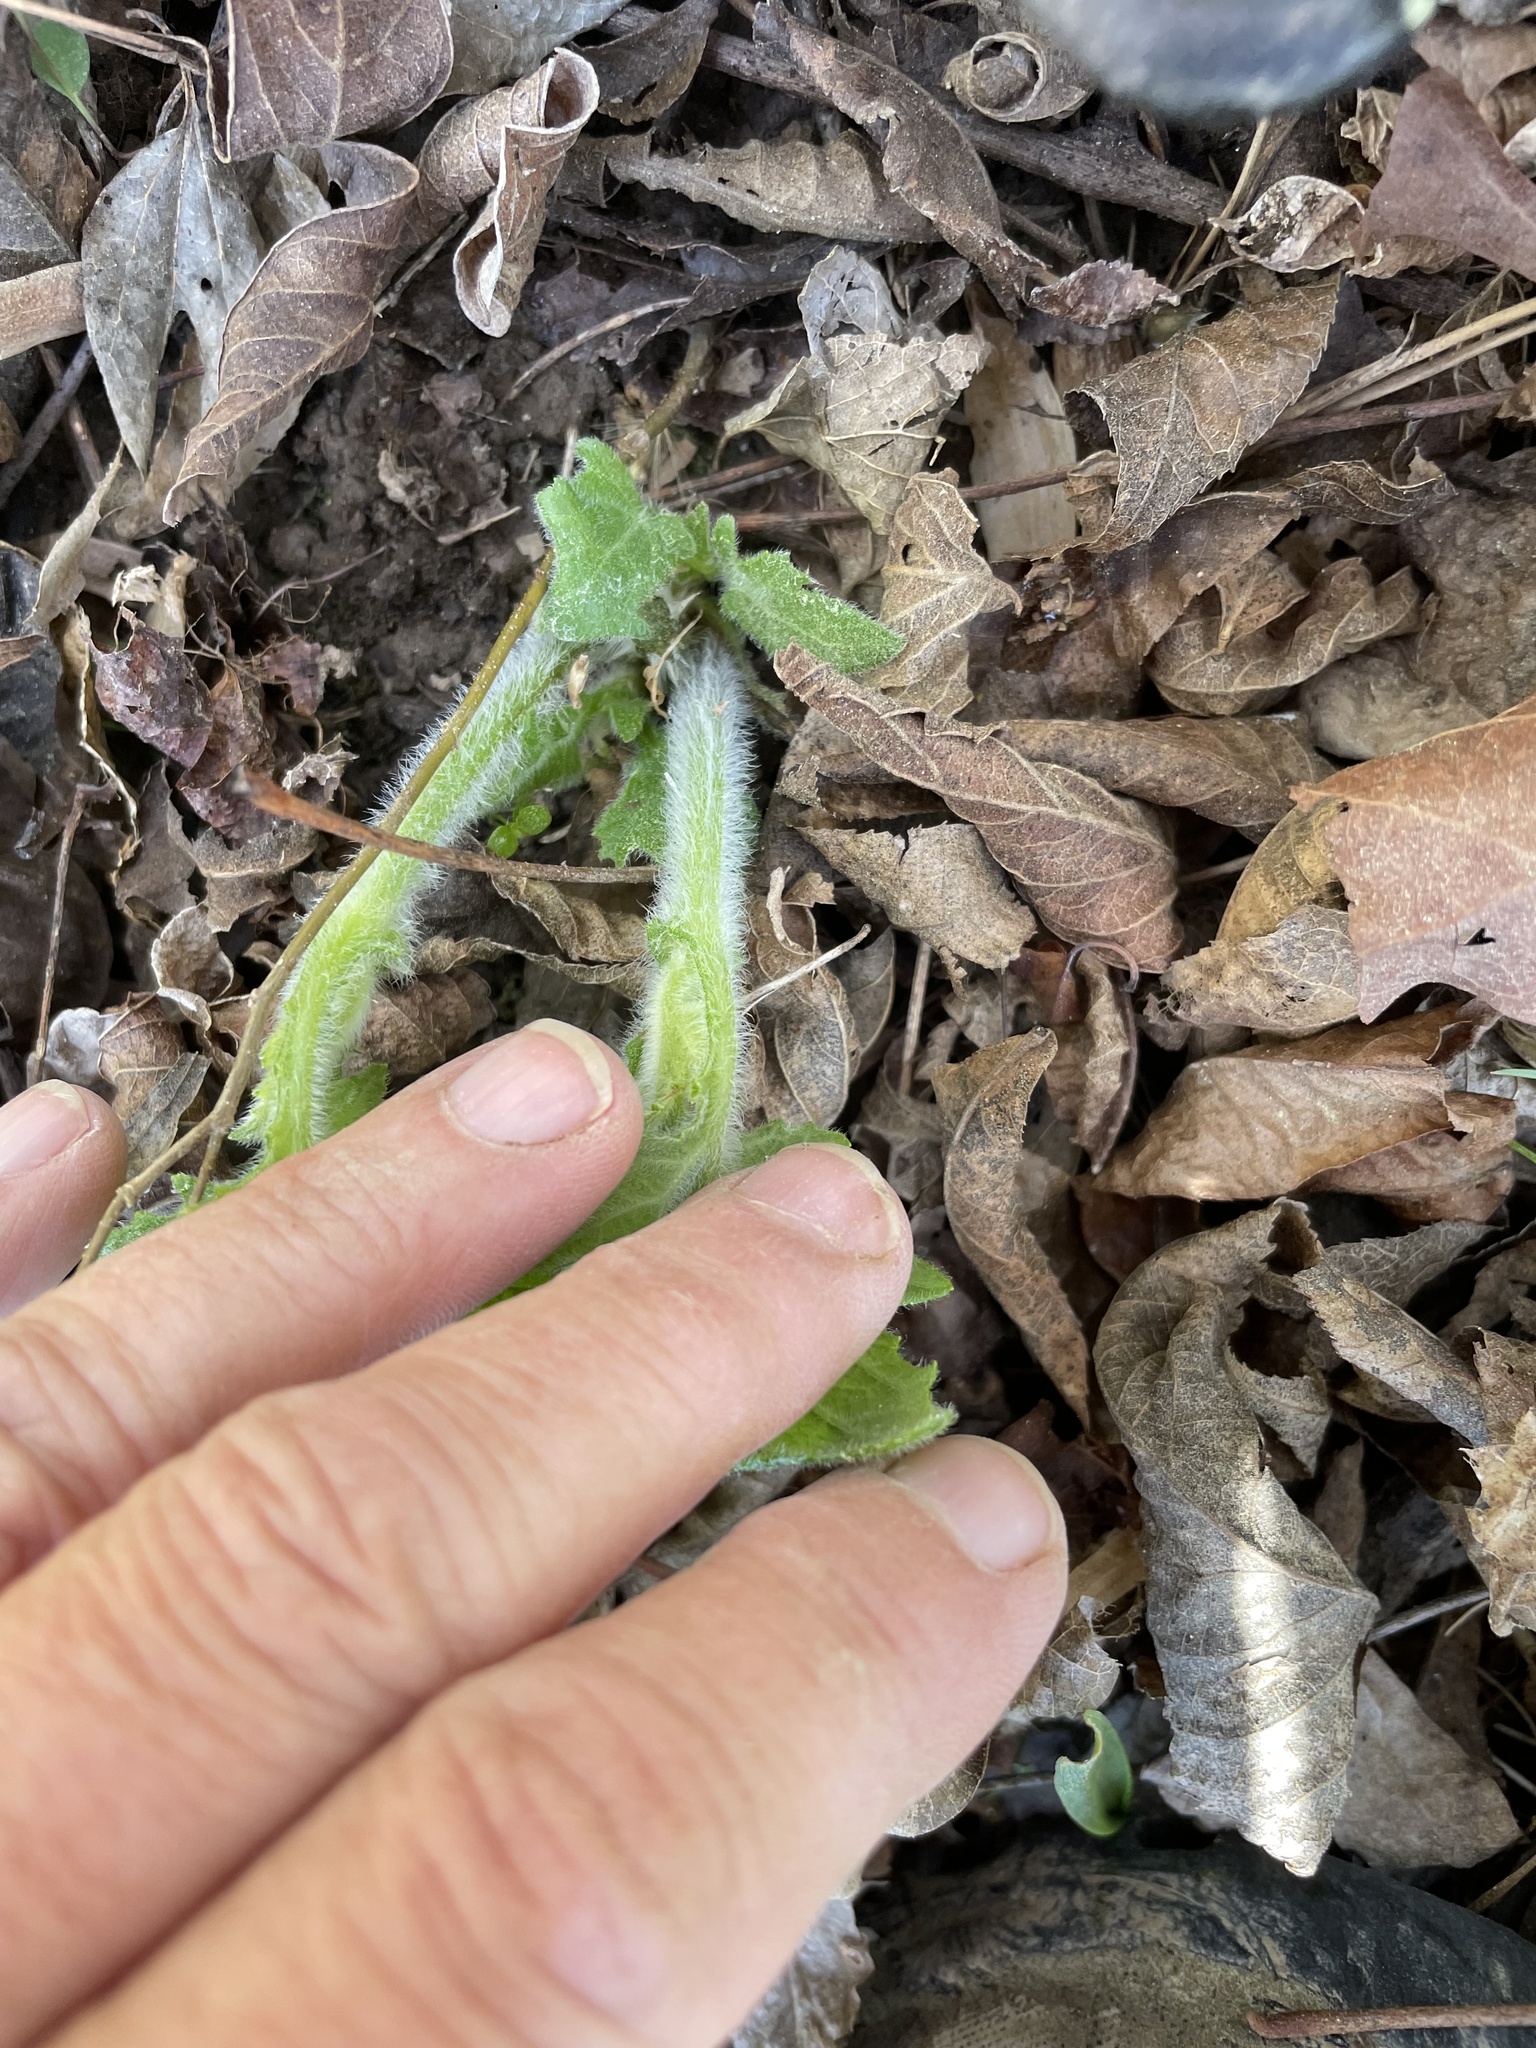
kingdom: Plantae
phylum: Tracheophyta
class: Magnoliopsida
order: Asterales
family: Asteraceae
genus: Smallanthus
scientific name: Smallanthus uvedalia
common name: Bear's-foot
